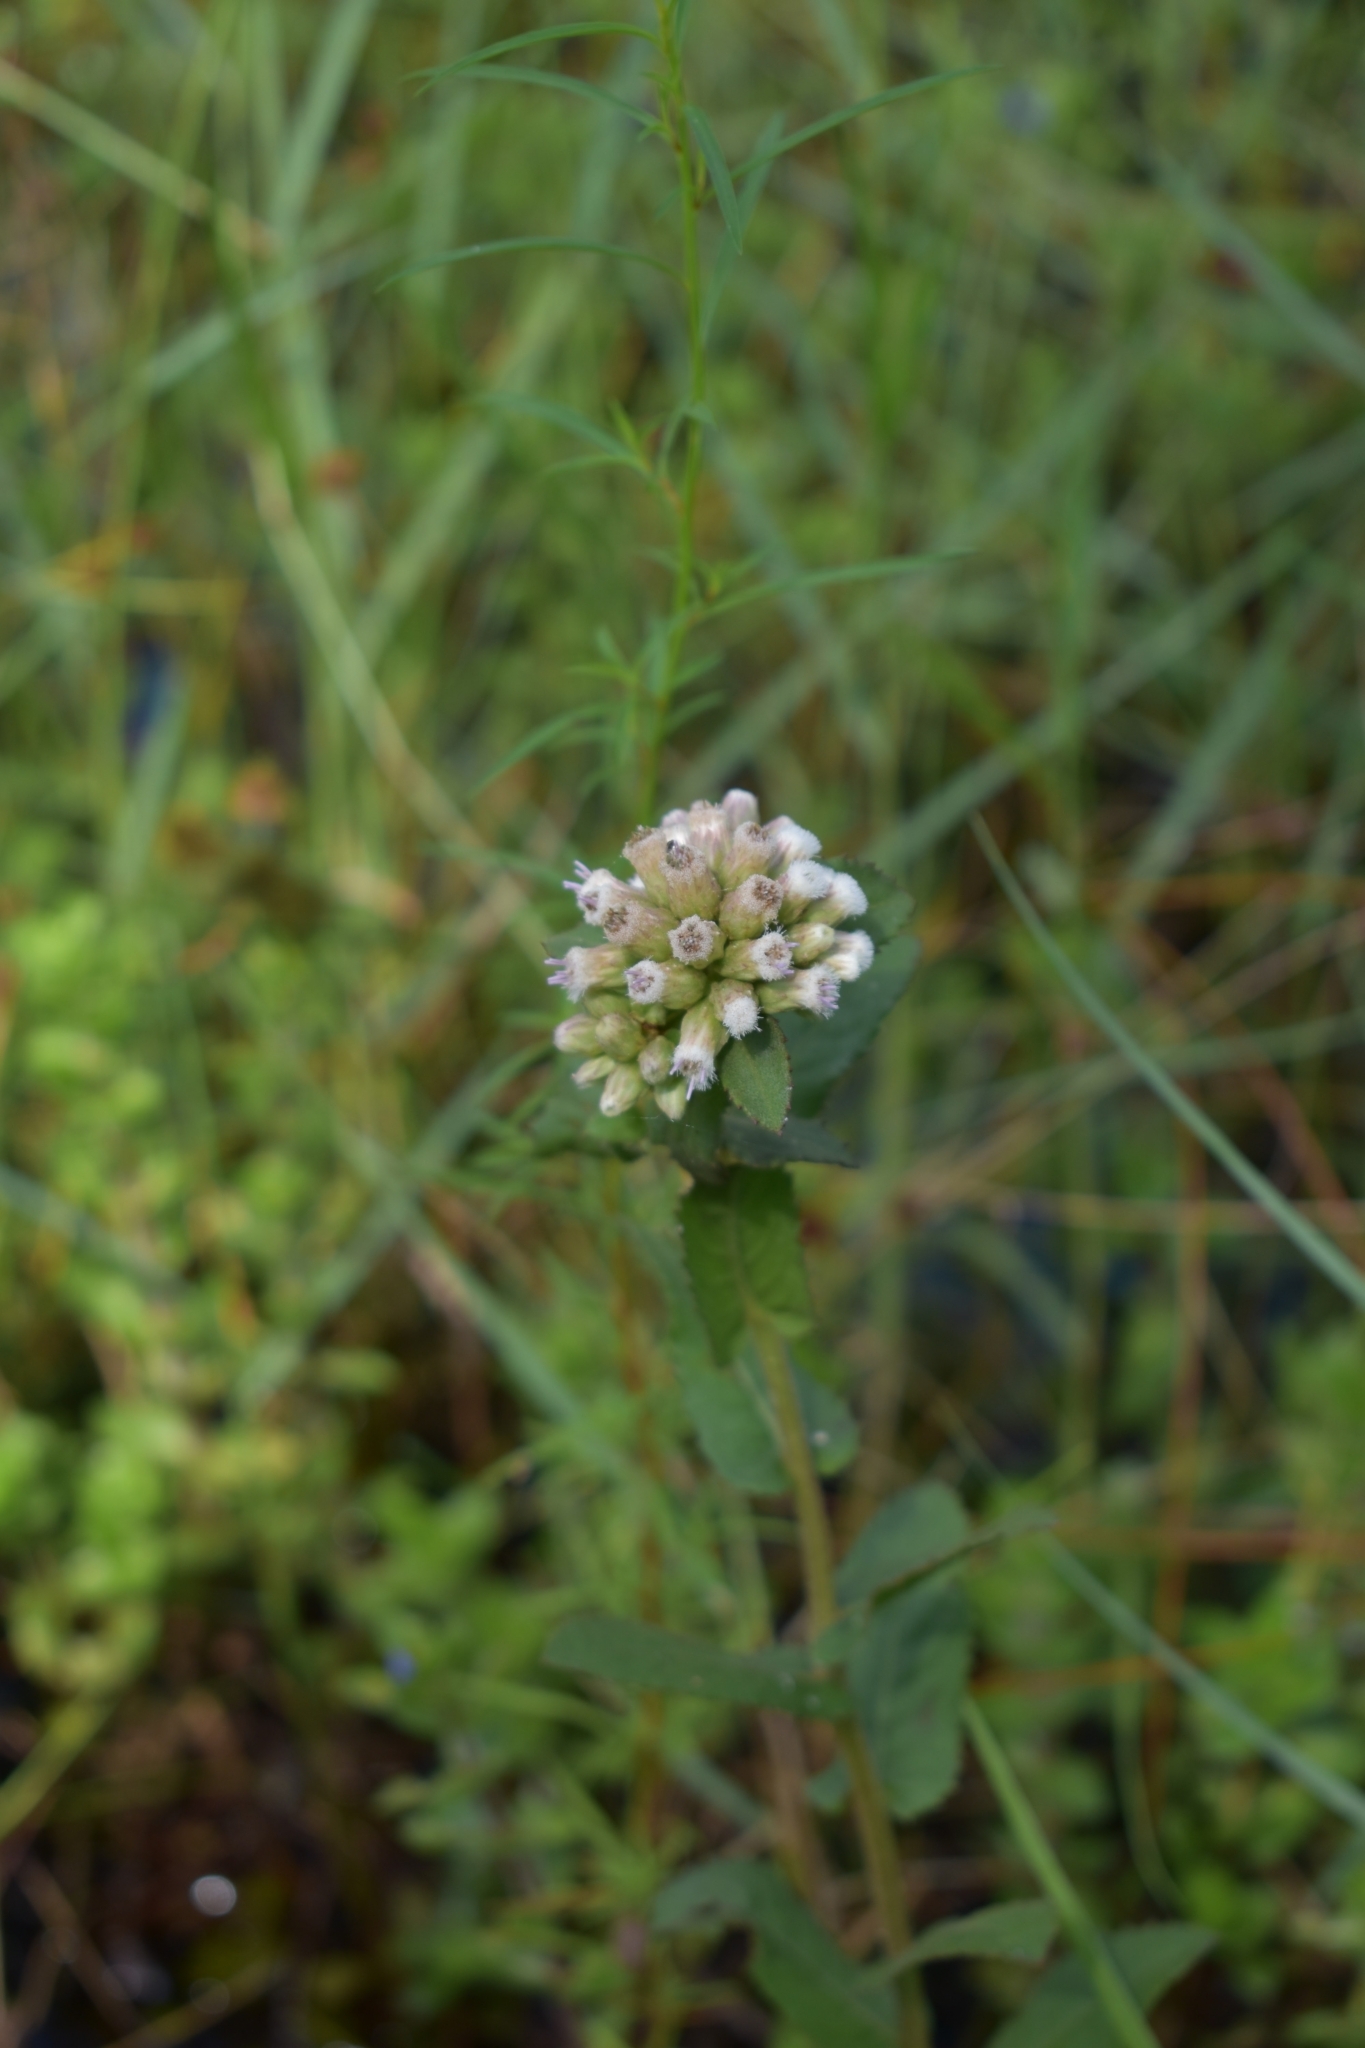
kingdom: Plantae
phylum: Tracheophyta
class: Magnoliopsida
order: Asterales
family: Asteraceae
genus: Pluchea
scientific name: Pluchea foetida
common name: Stinking camphorweed
